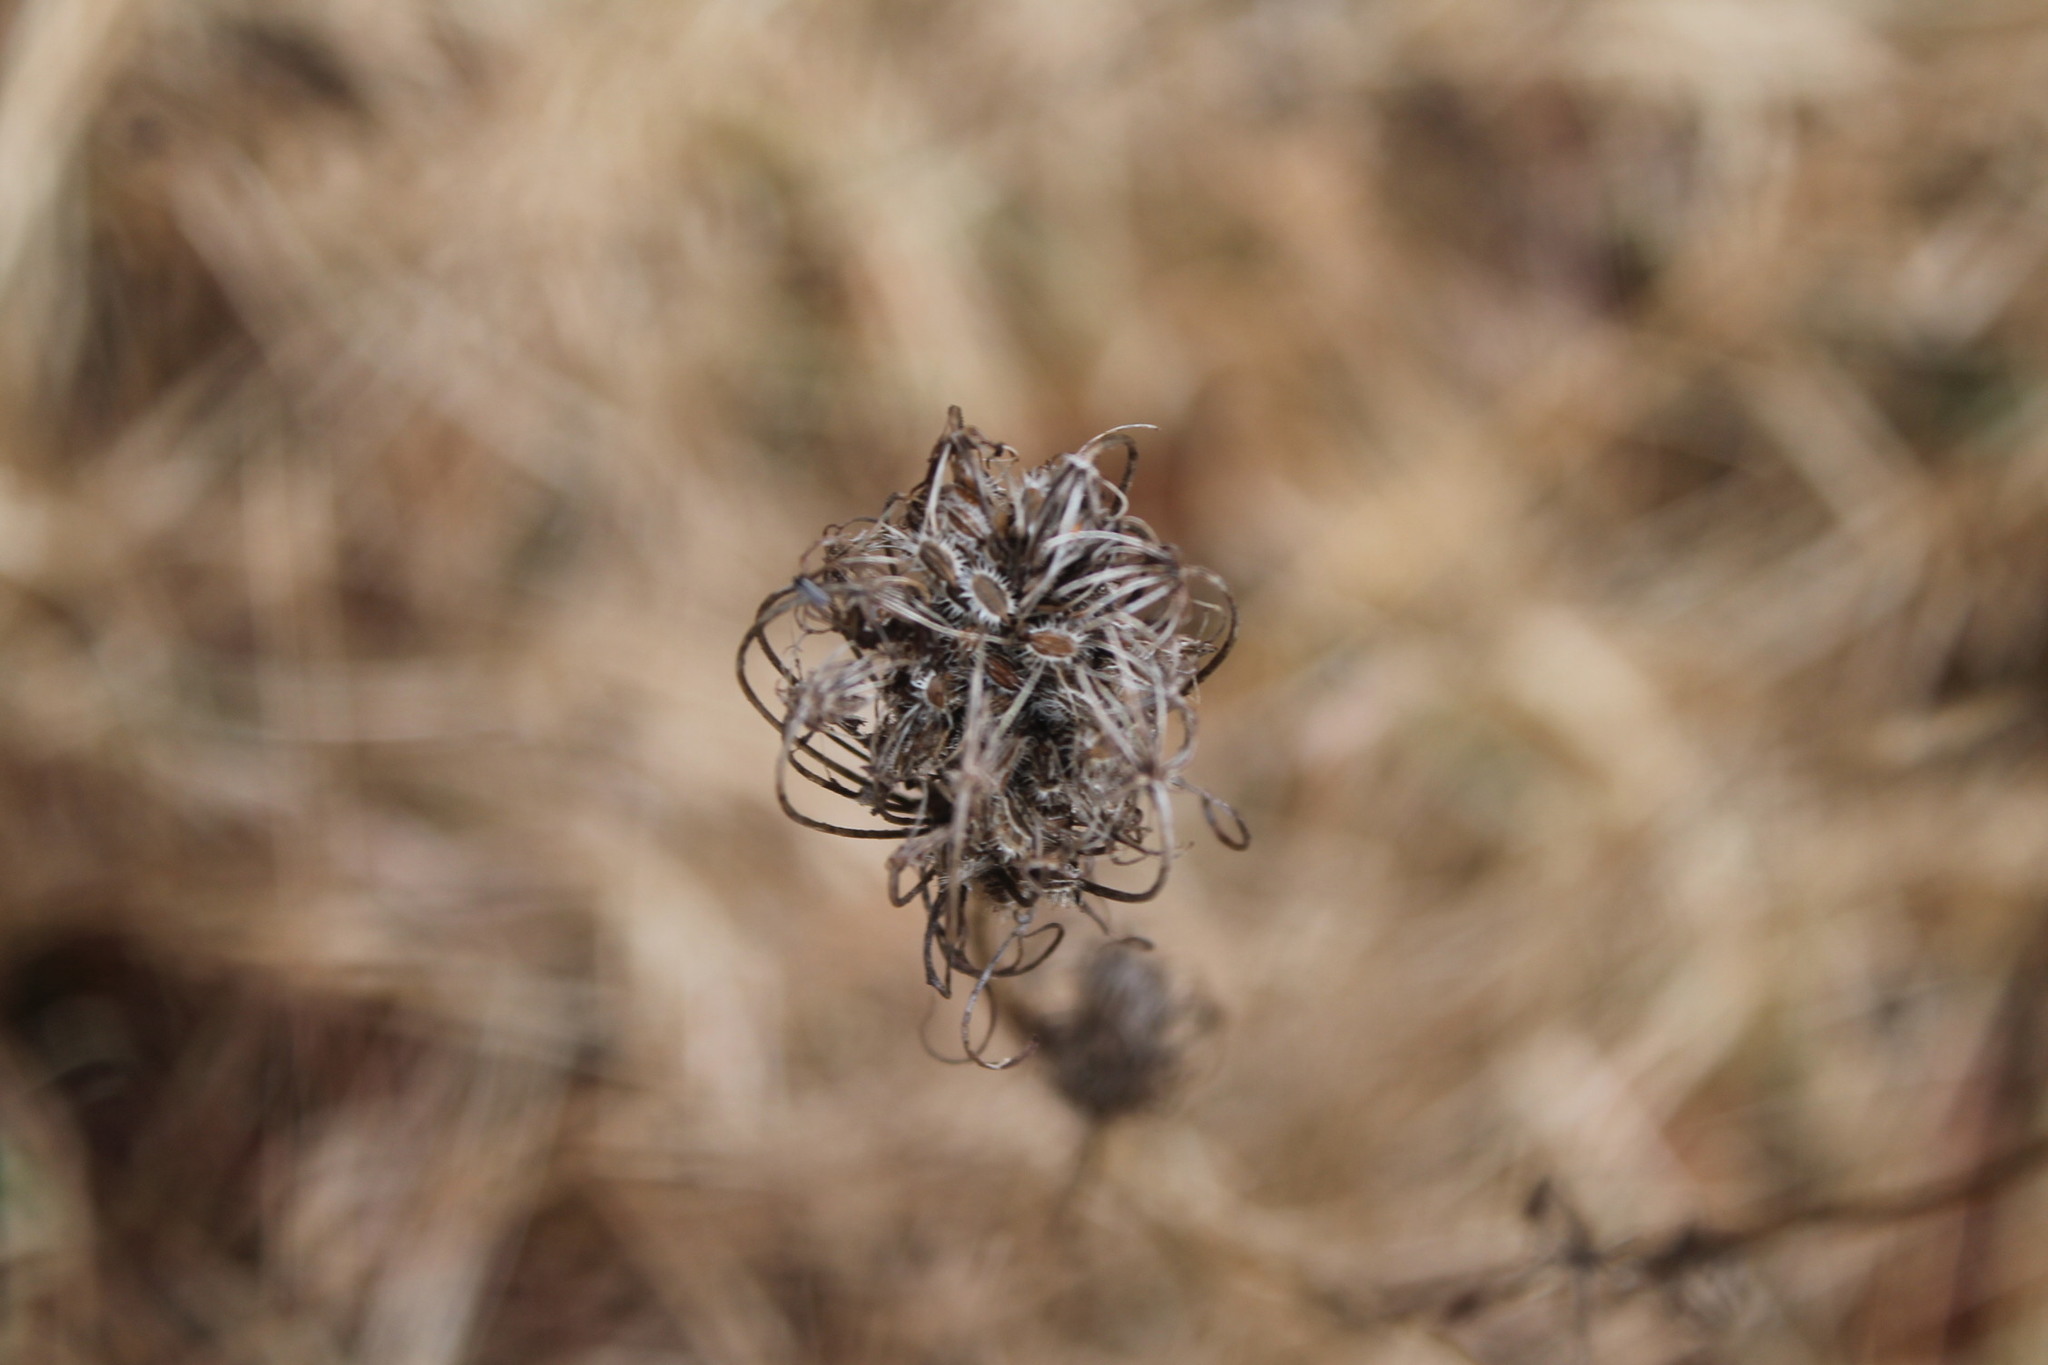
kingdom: Plantae
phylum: Tracheophyta
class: Magnoliopsida
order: Apiales
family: Apiaceae
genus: Daucus
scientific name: Daucus carota
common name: Wild carrot
